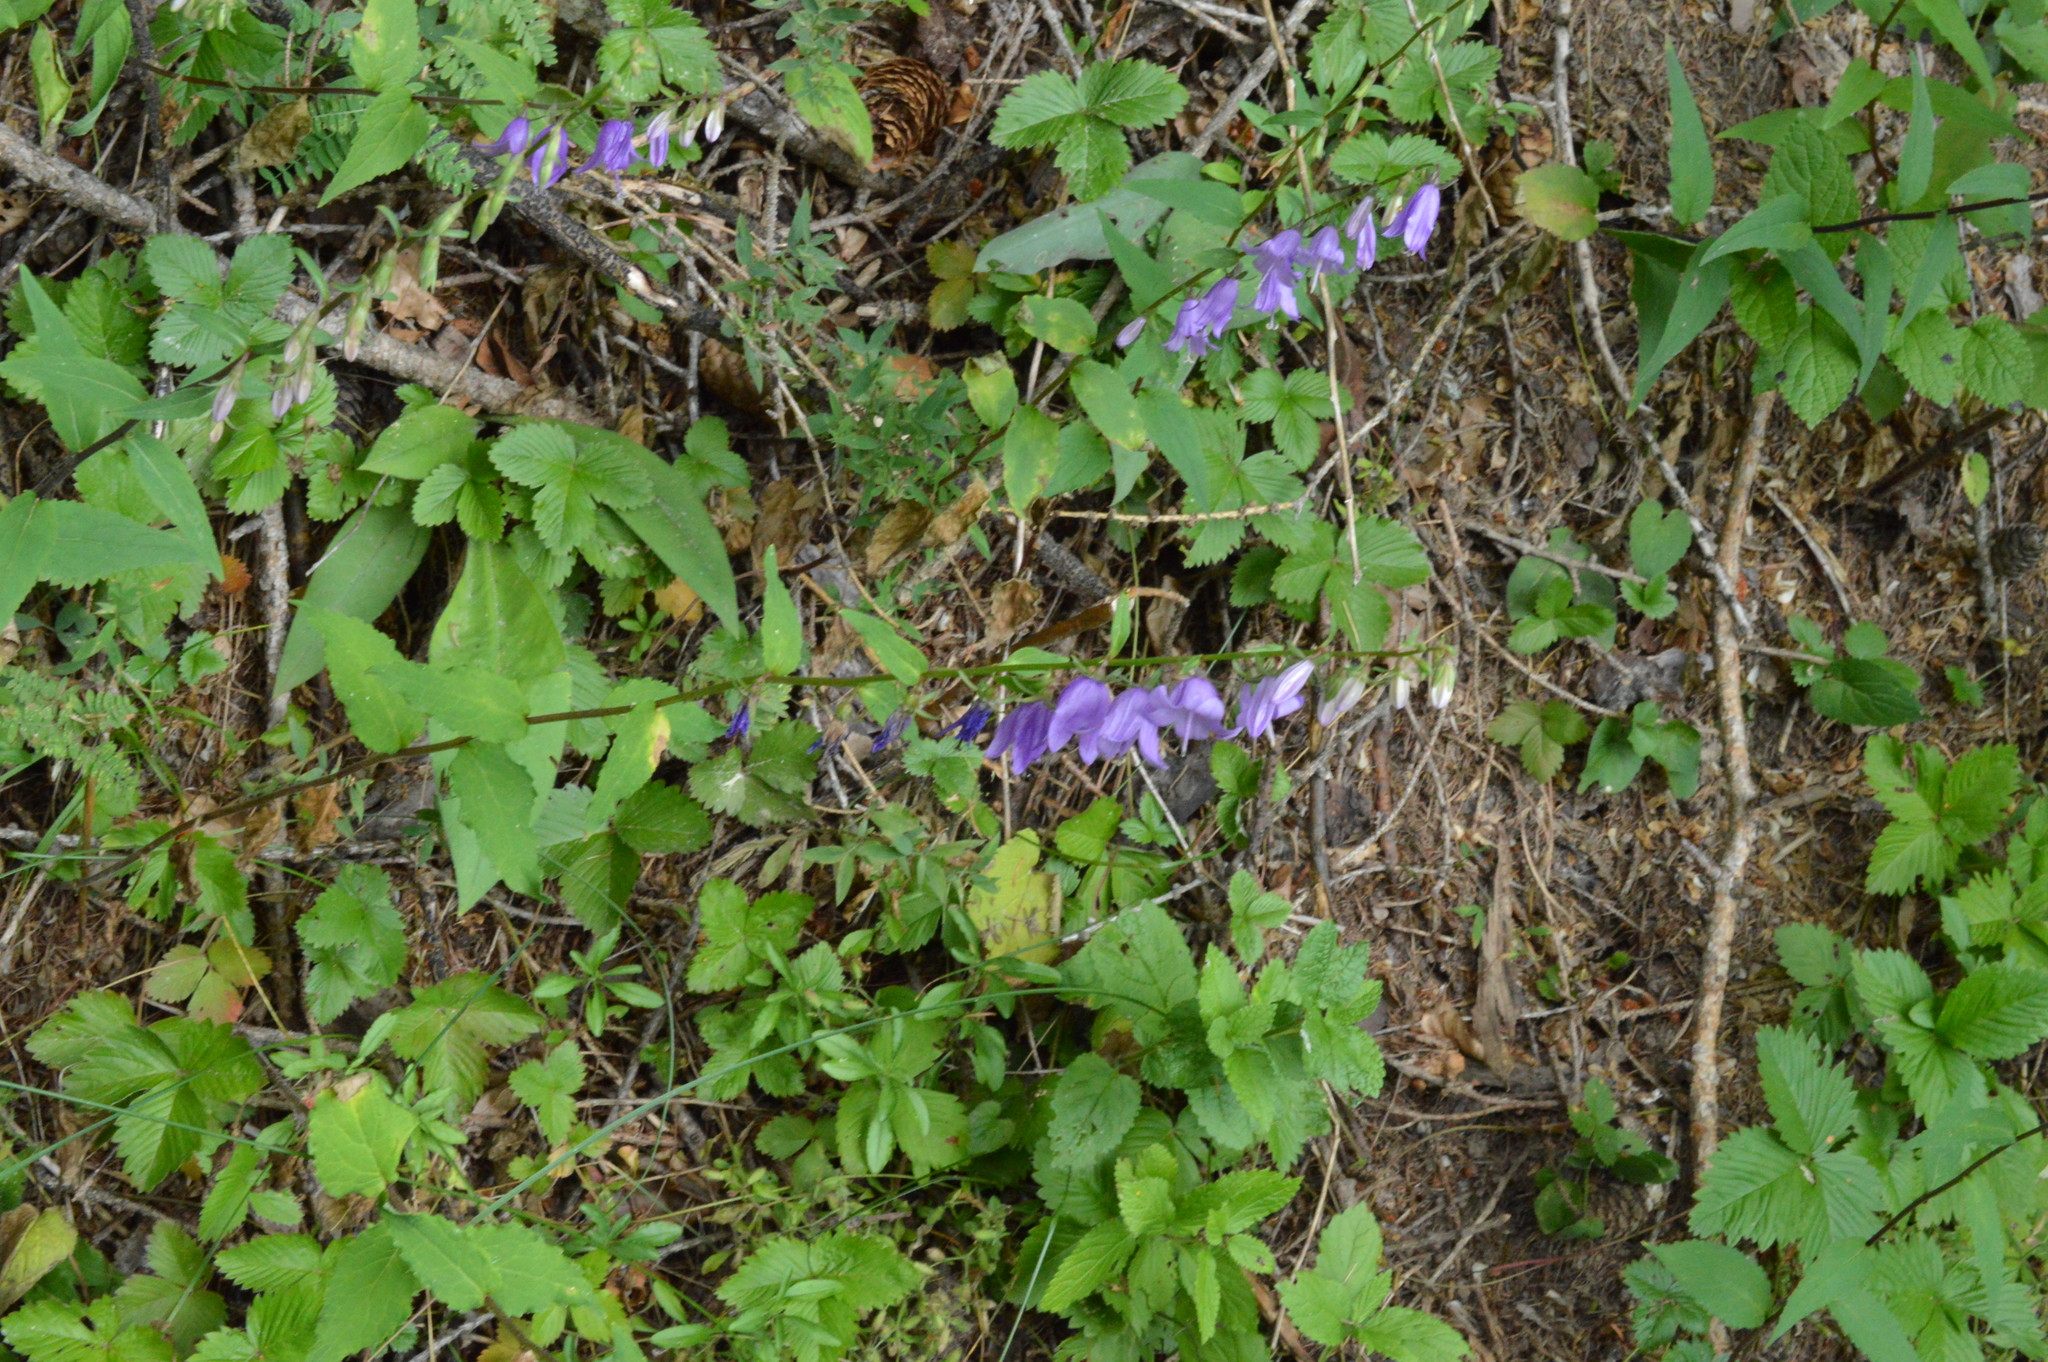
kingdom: Plantae
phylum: Tracheophyta
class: Magnoliopsida
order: Asterales
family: Campanulaceae
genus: Campanula
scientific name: Campanula rapunculoides
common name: Creeping bellflower
